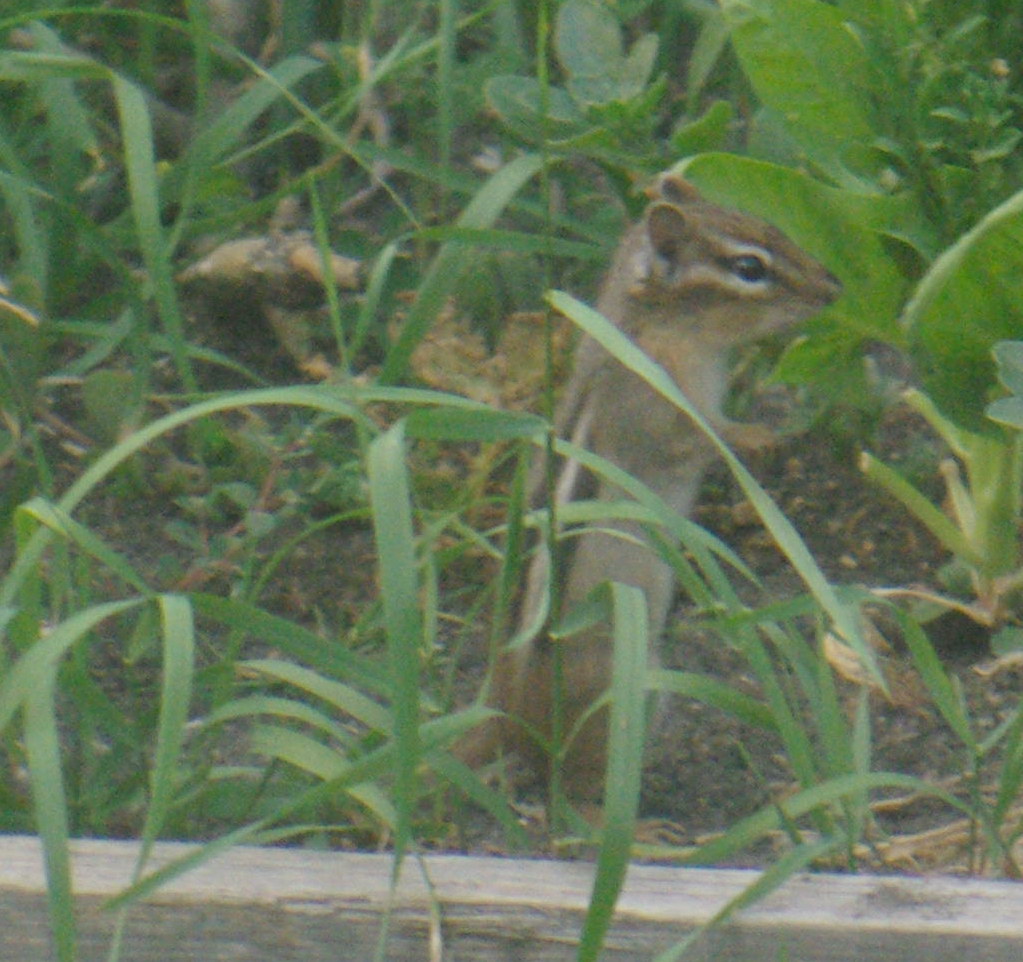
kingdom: Animalia
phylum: Chordata
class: Mammalia
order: Rodentia
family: Sciuridae
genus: Tamias
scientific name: Tamias striatus
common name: Eastern chipmunk
